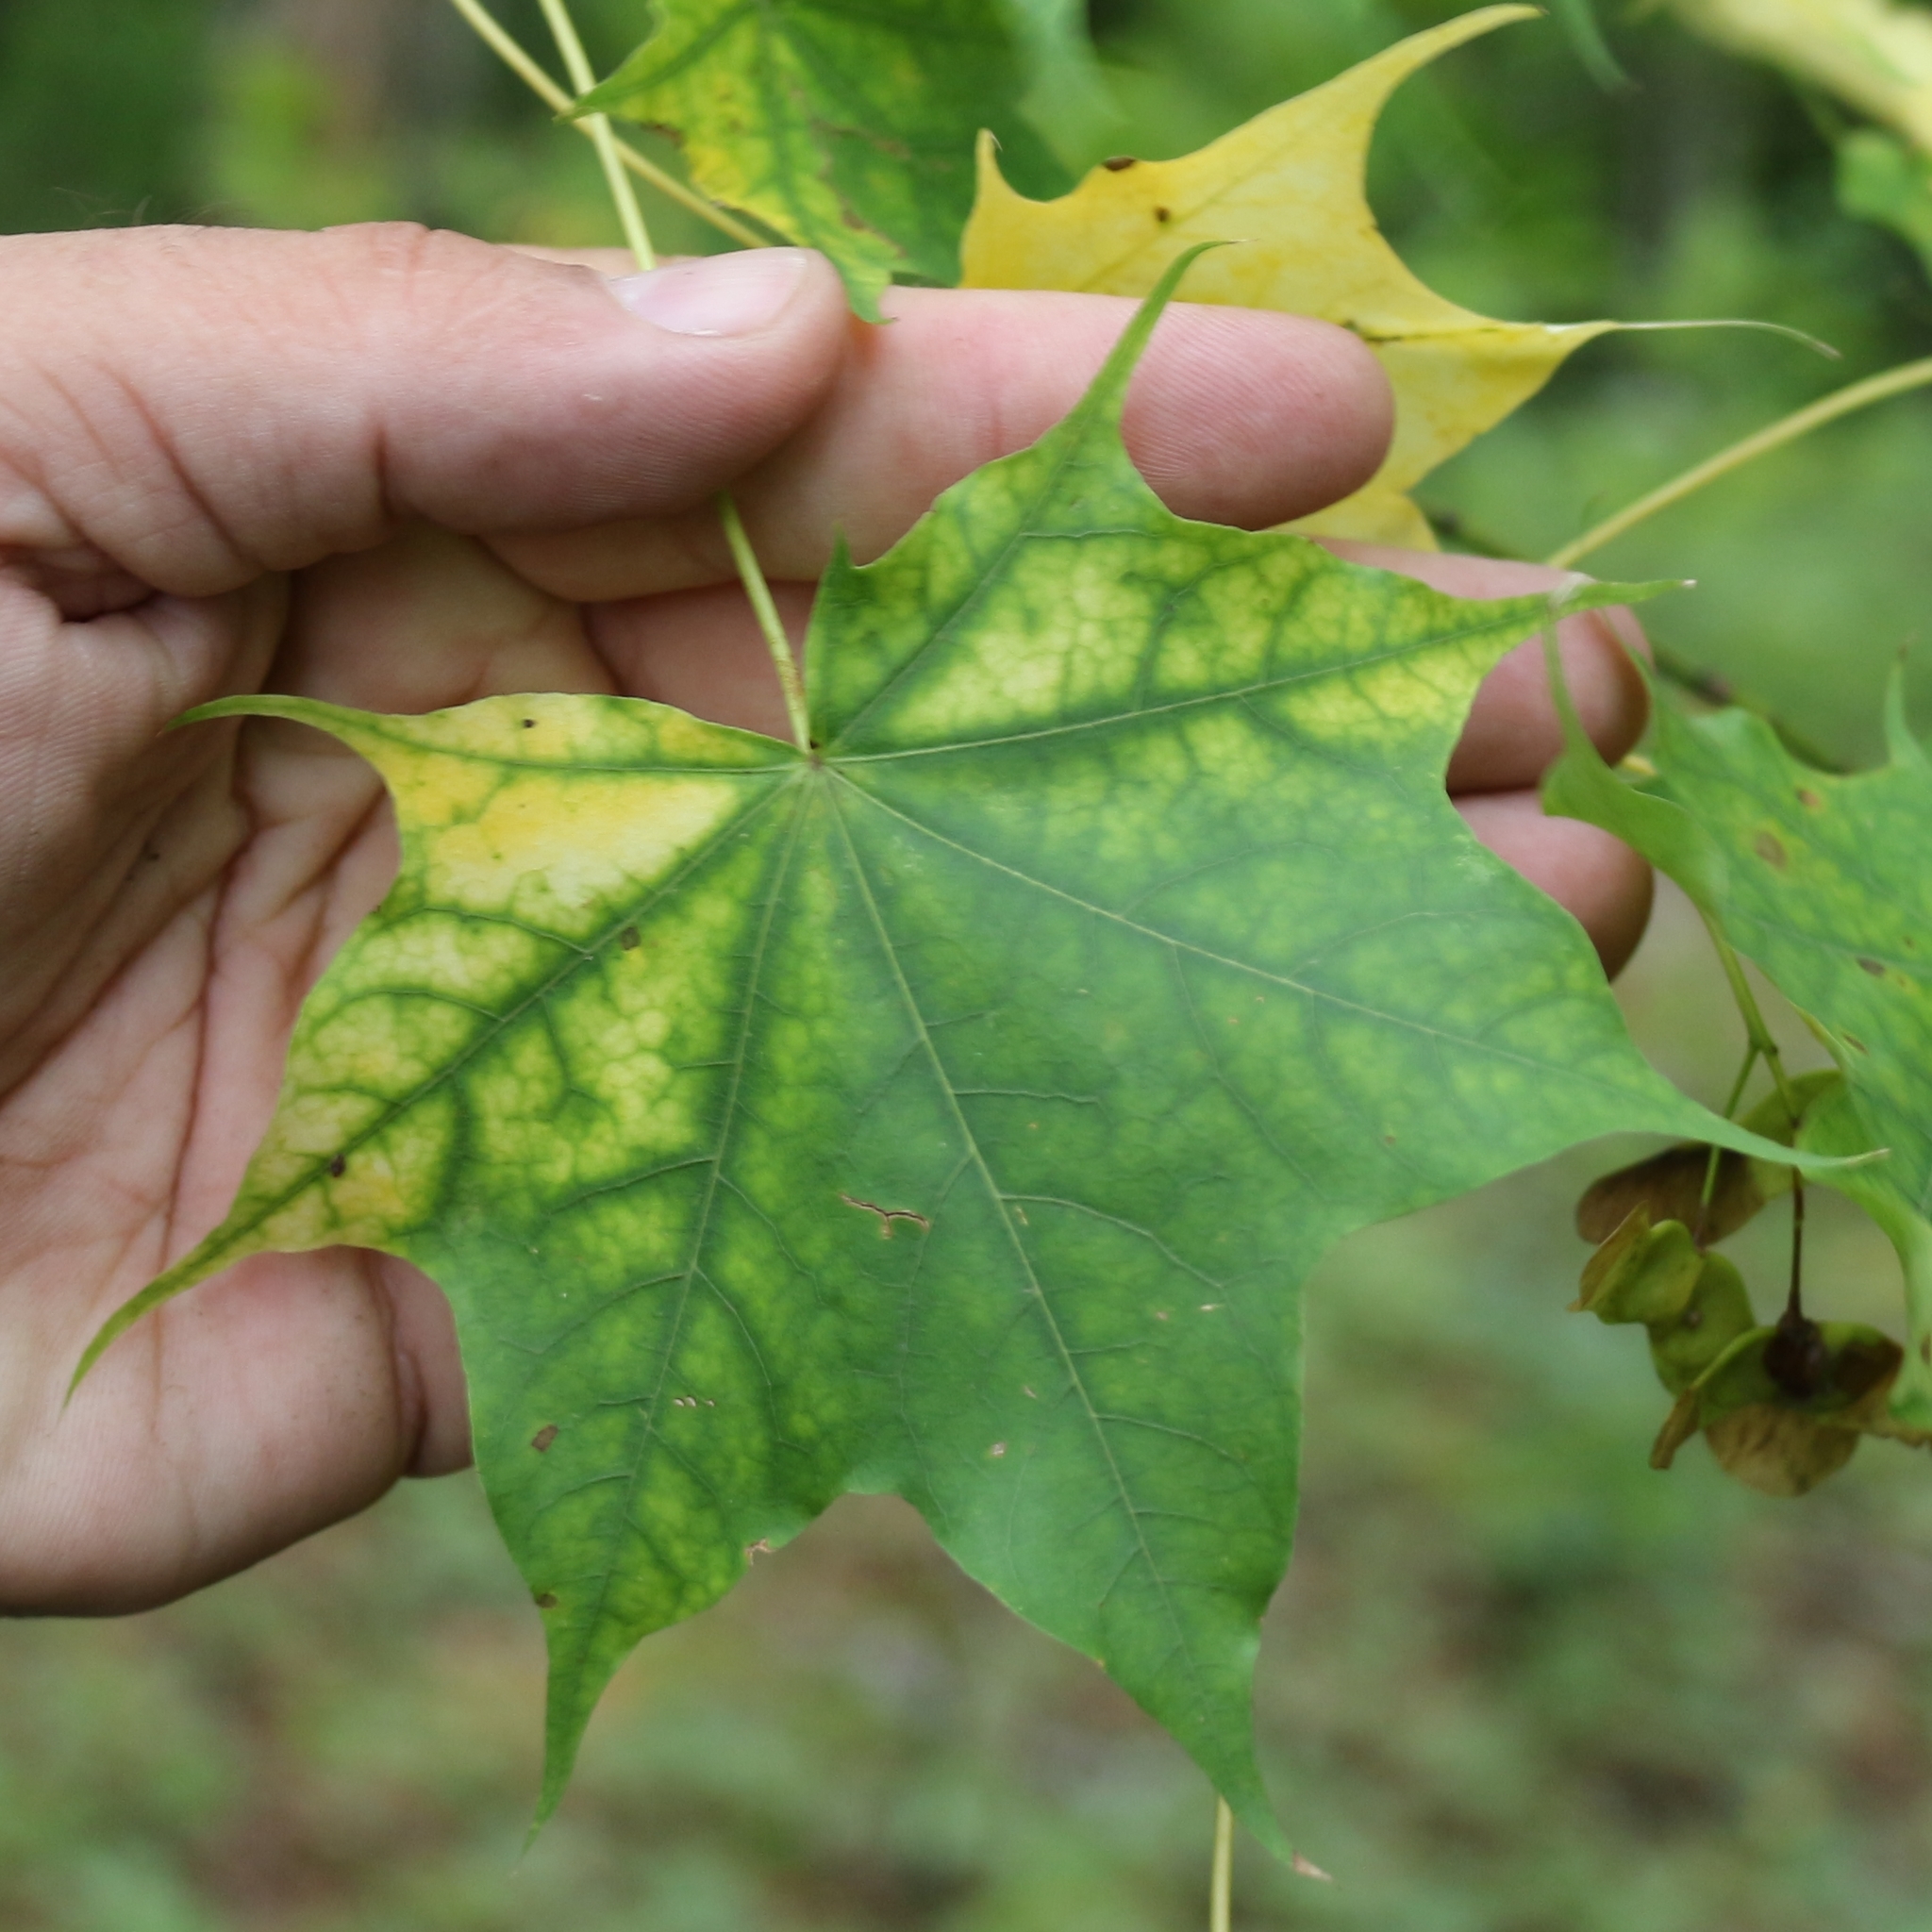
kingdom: Plantae
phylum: Tracheophyta
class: Magnoliopsida
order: Sapindales
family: Sapindaceae
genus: Acer
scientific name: Acer cappadocicum
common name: Cappadocian maple
